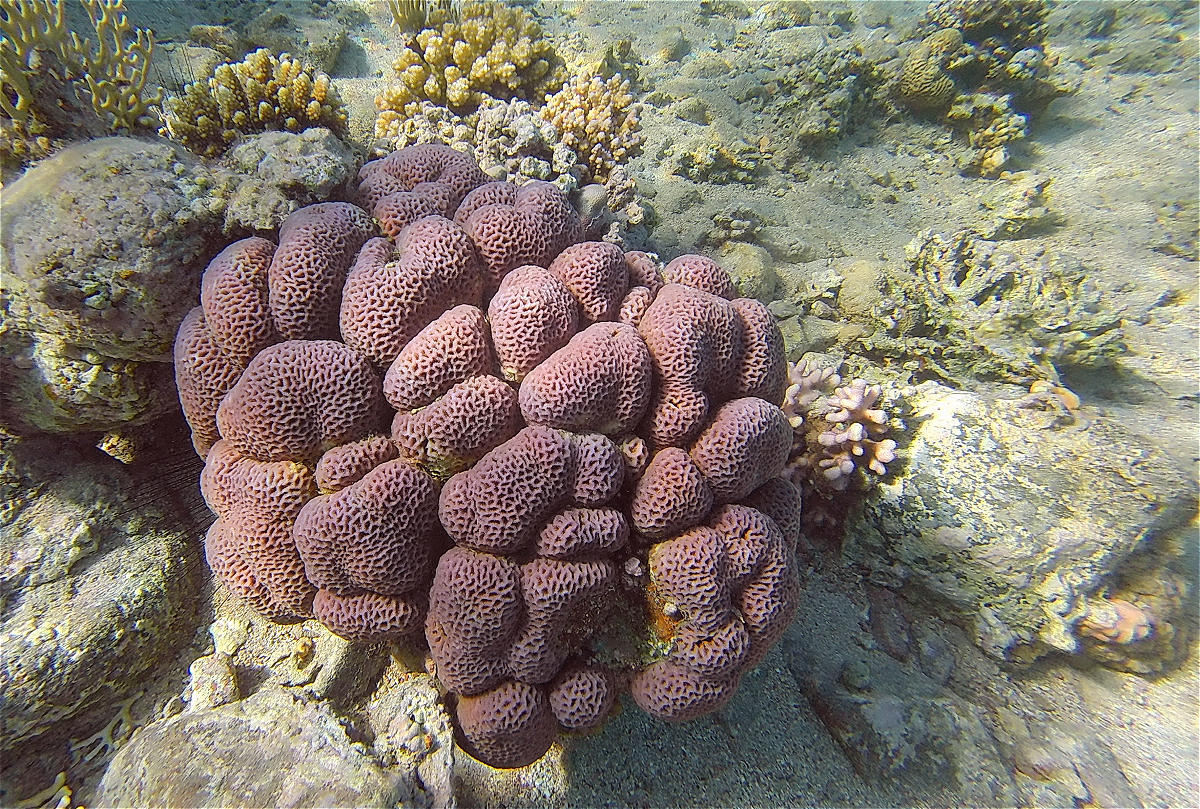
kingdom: Animalia
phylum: Cnidaria
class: Anthozoa
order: Scleractinia
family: Merulinidae
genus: Goniastrea
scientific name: Goniastrea pectinata
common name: Lesser star coral
